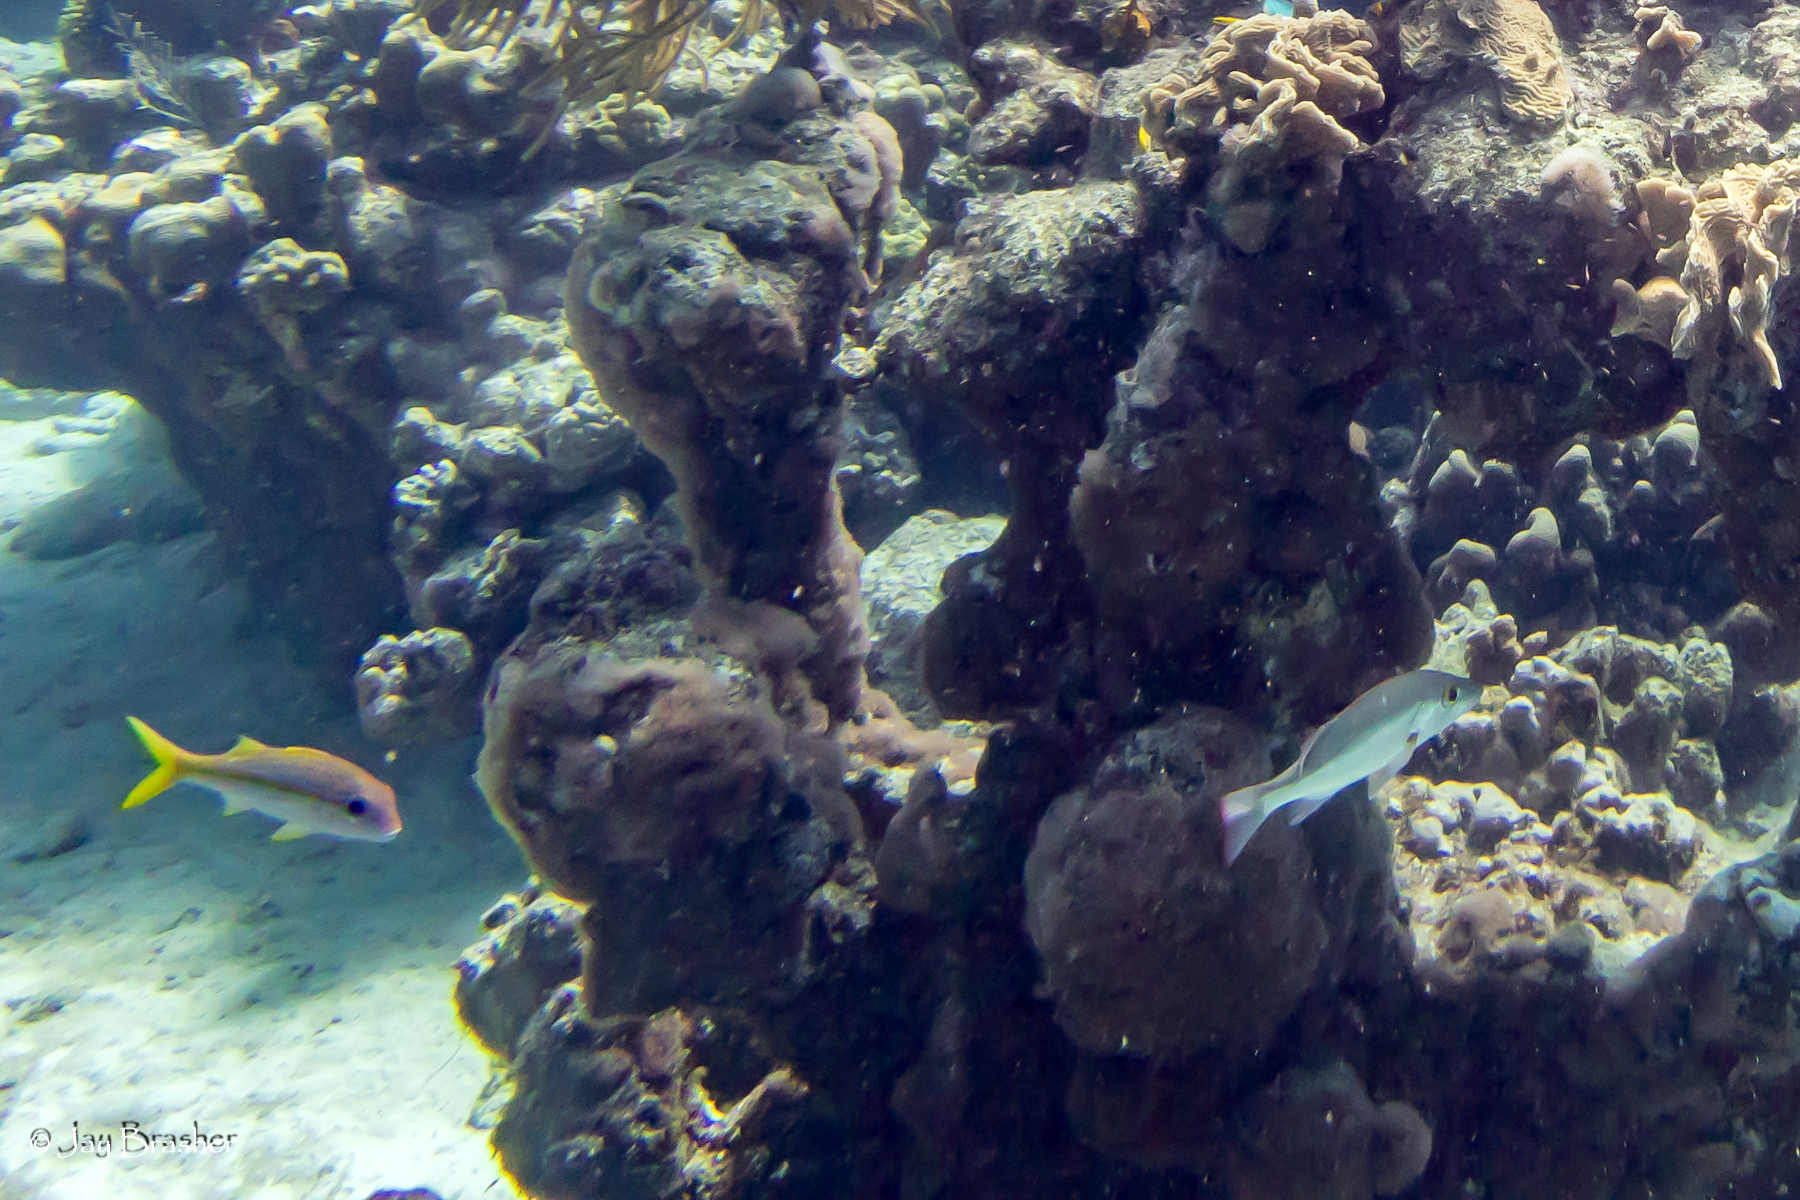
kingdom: Animalia
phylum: Chordata
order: Perciformes
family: Mullidae
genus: Mulloidichthys
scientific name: Mulloidichthys martinicus
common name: Yellow goatfish
